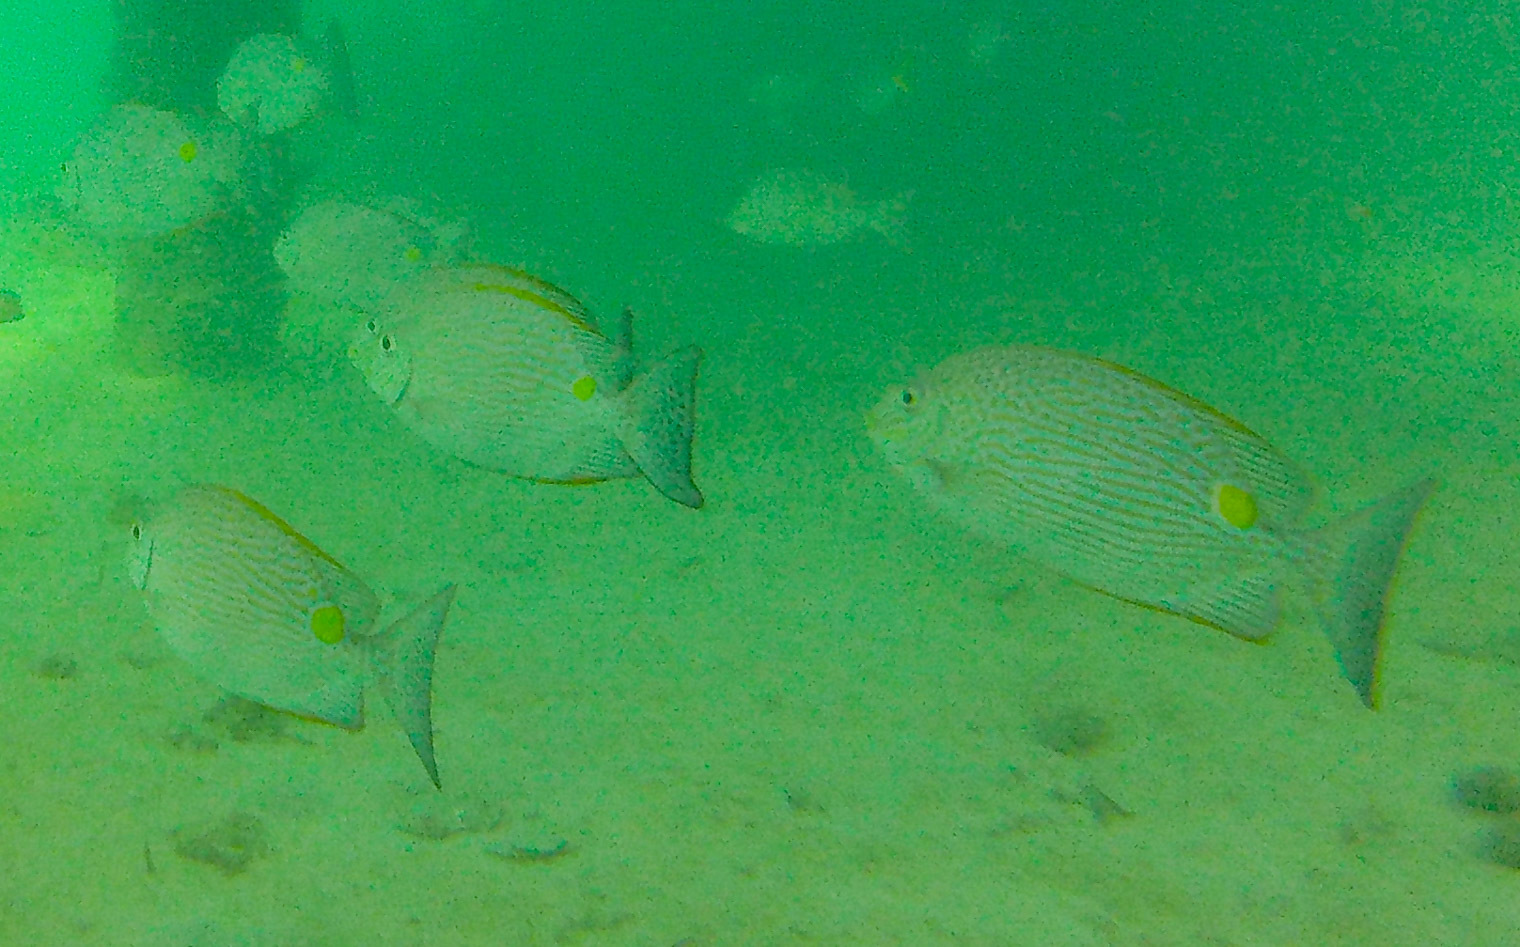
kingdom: Animalia
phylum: Chordata
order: Perciformes
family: Siganidae
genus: Siganus
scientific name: Siganus lineatus
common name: Lined rabbitfish
